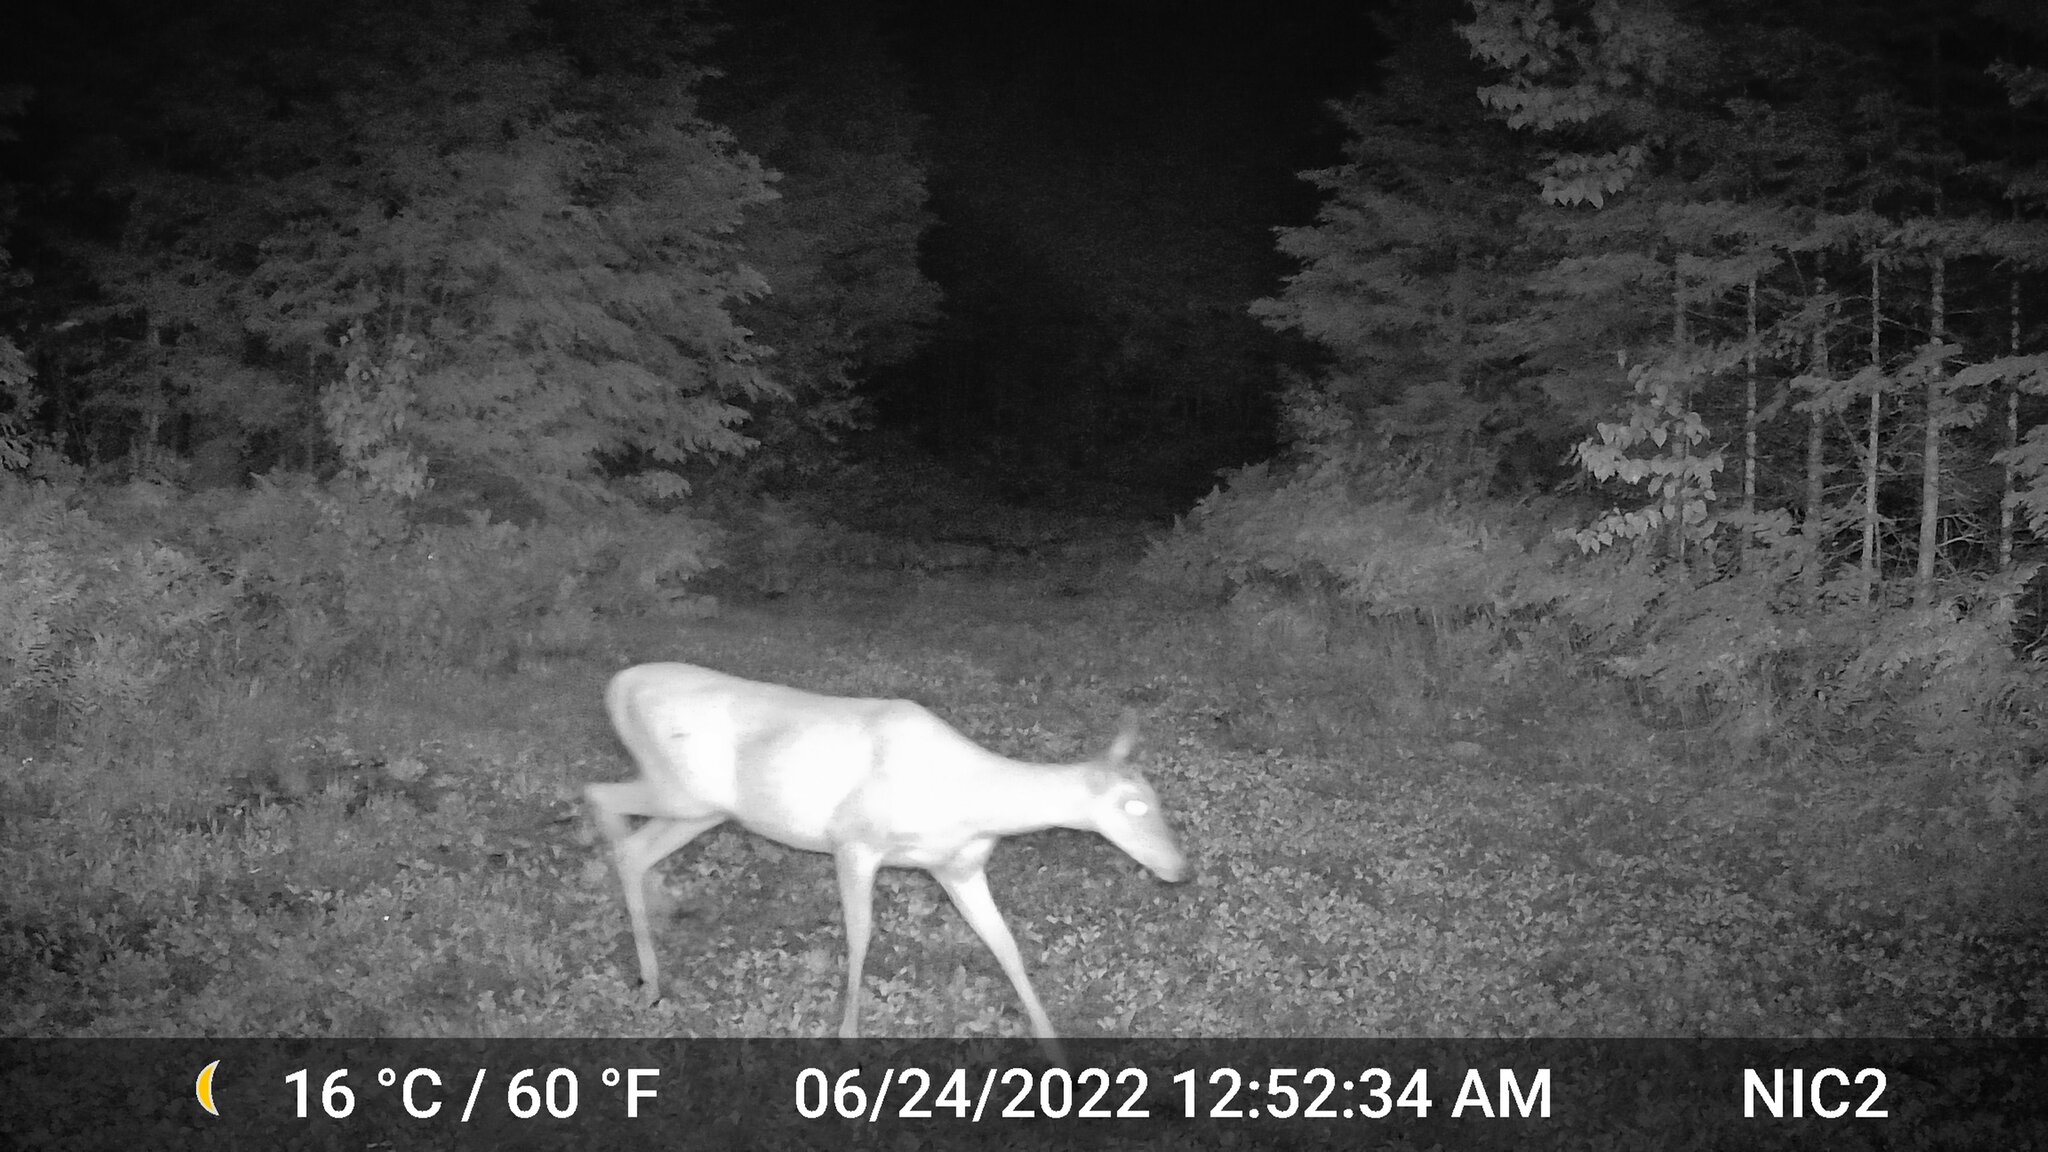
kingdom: Animalia
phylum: Chordata
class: Mammalia
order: Artiodactyla
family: Cervidae
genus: Odocoileus
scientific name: Odocoileus virginianus
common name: White-tailed deer
